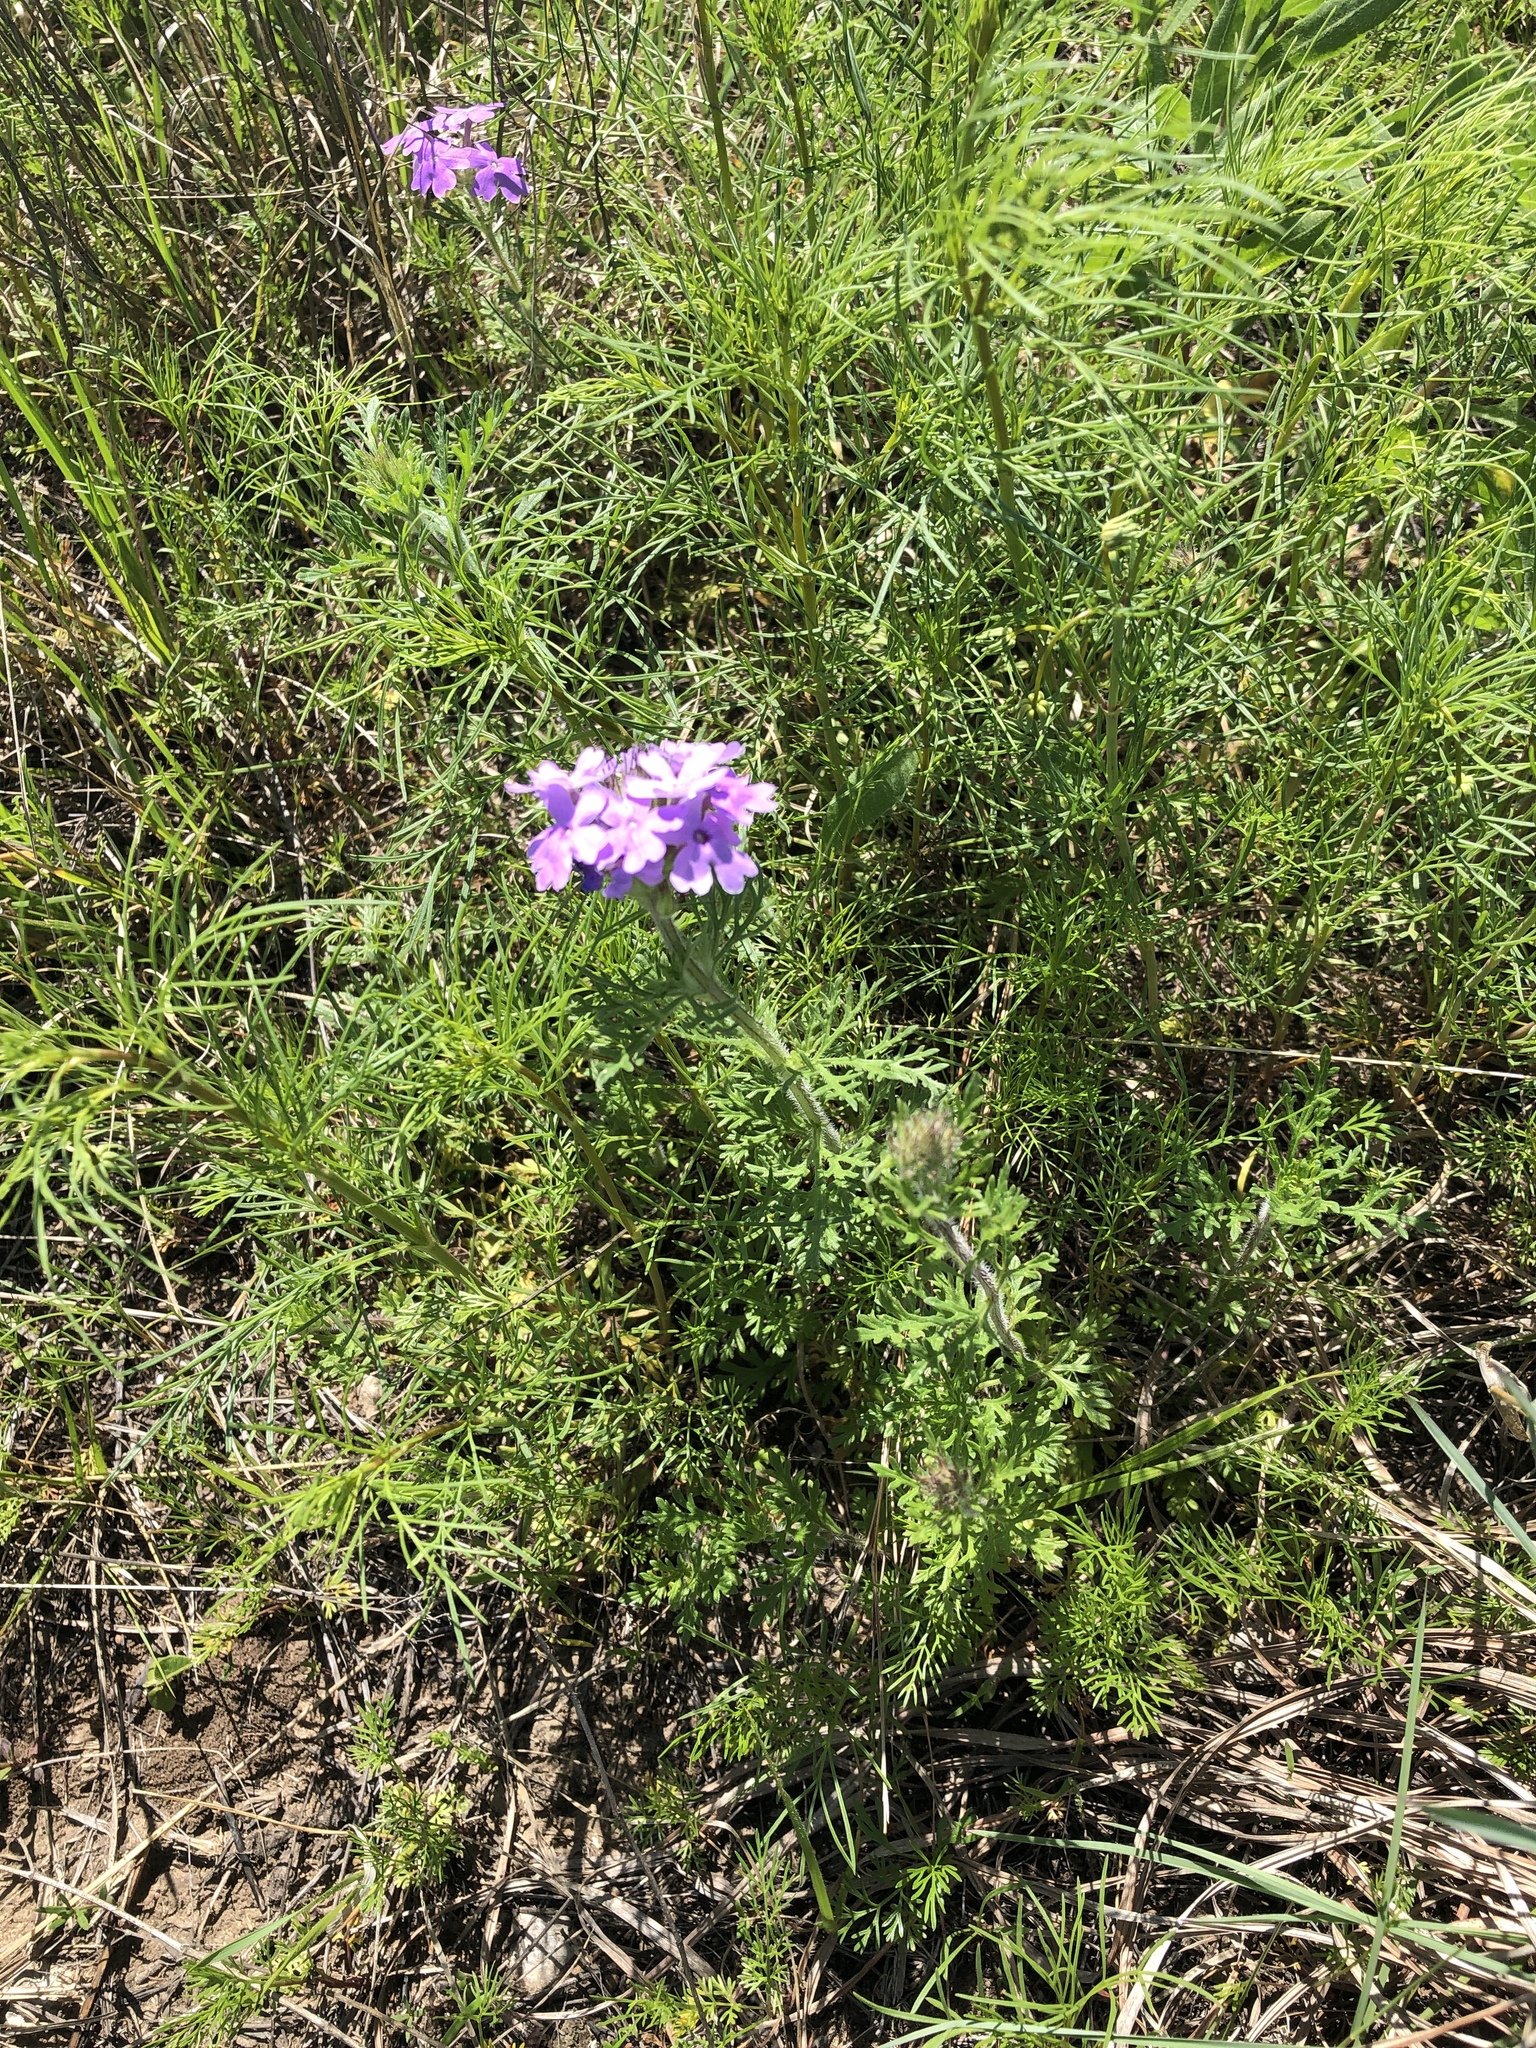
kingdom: Plantae
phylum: Tracheophyta
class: Magnoliopsida
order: Lamiales
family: Verbenaceae
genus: Verbena
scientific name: Verbena bipinnatifida
